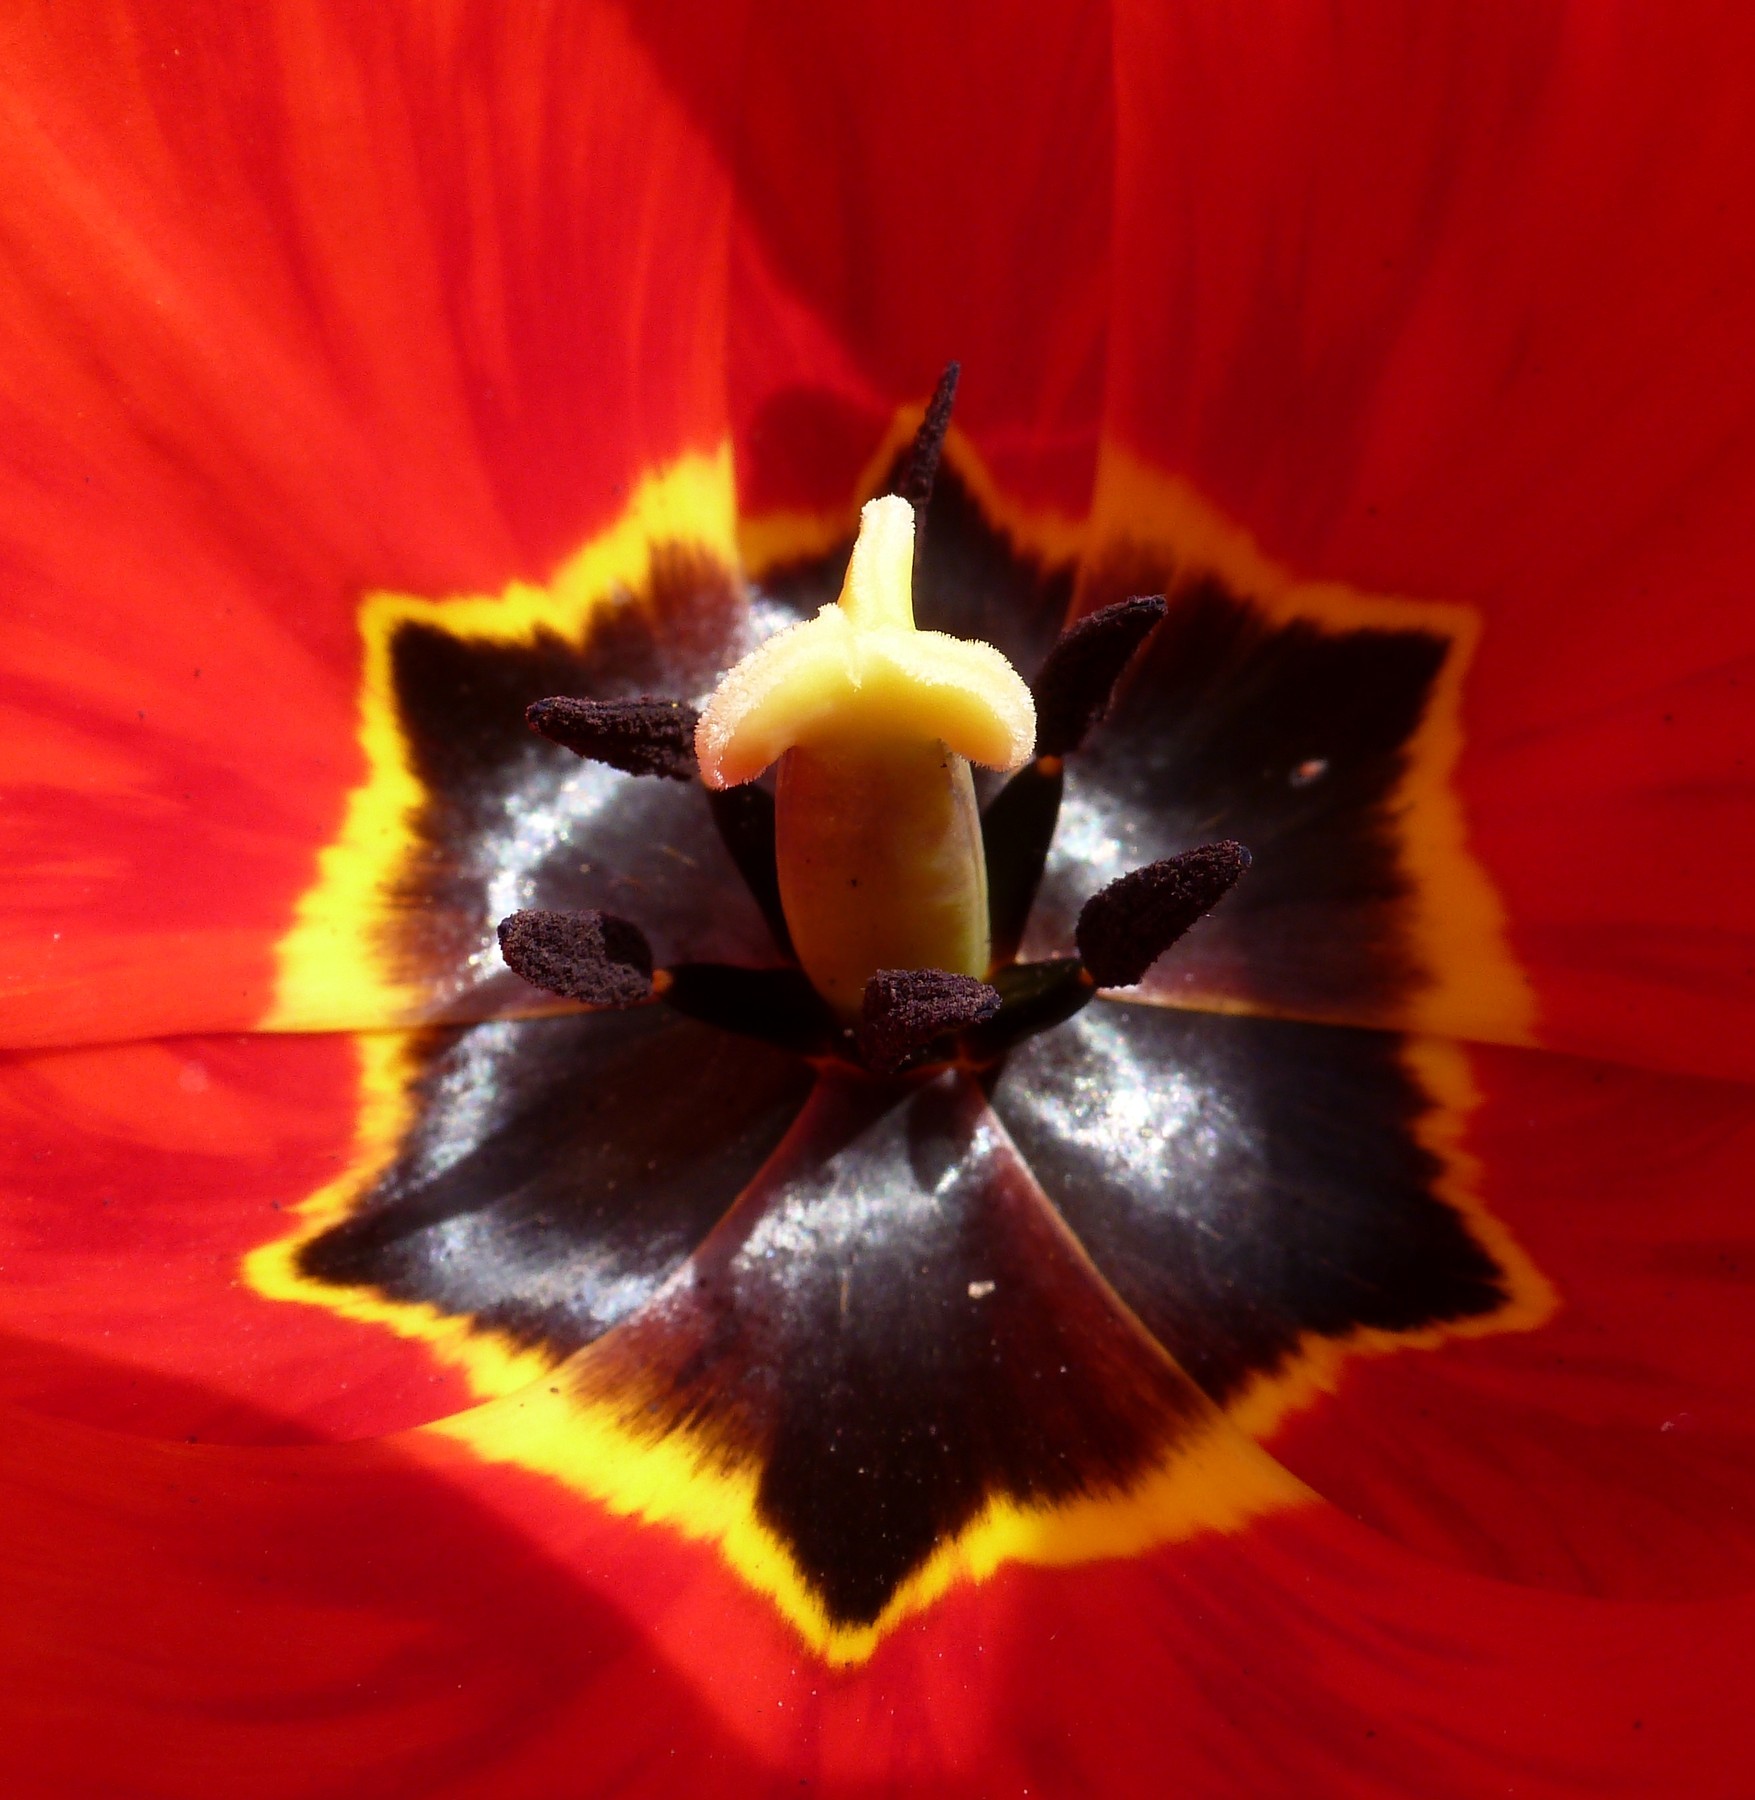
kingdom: Plantae
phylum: Tracheophyta
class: Liliopsida
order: Liliales
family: Liliaceae
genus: Tulipa
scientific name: Tulipa gesneriana
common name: Garden tulip
